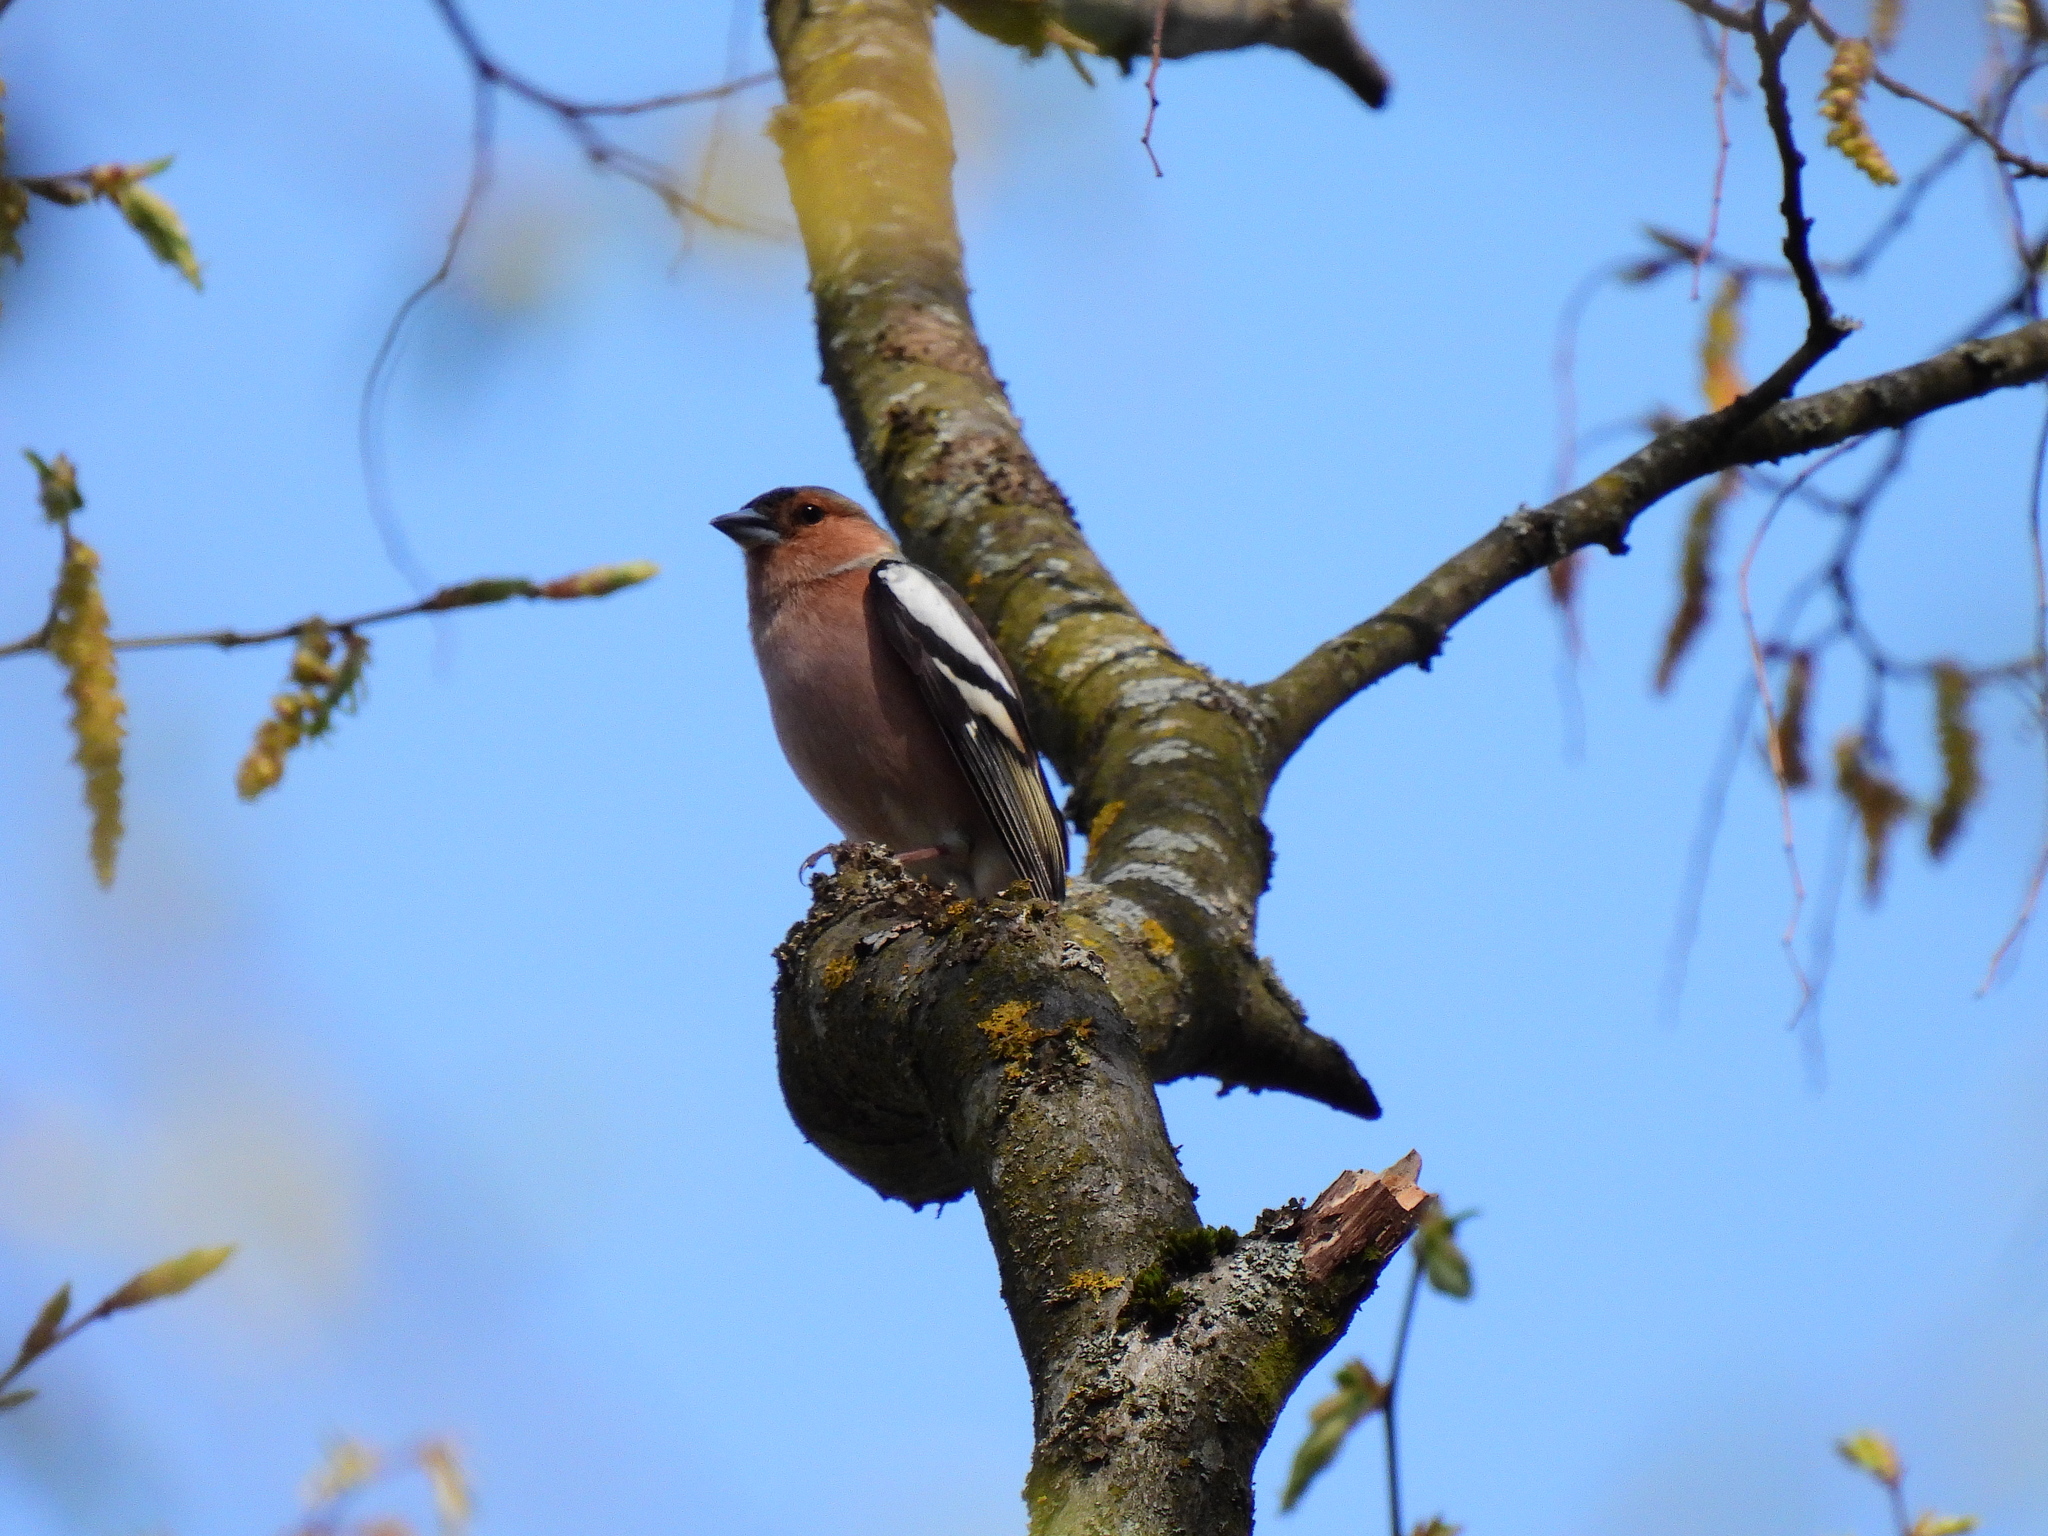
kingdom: Animalia
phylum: Chordata
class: Aves
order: Passeriformes
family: Fringillidae
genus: Fringilla
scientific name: Fringilla coelebs
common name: Common chaffinch
